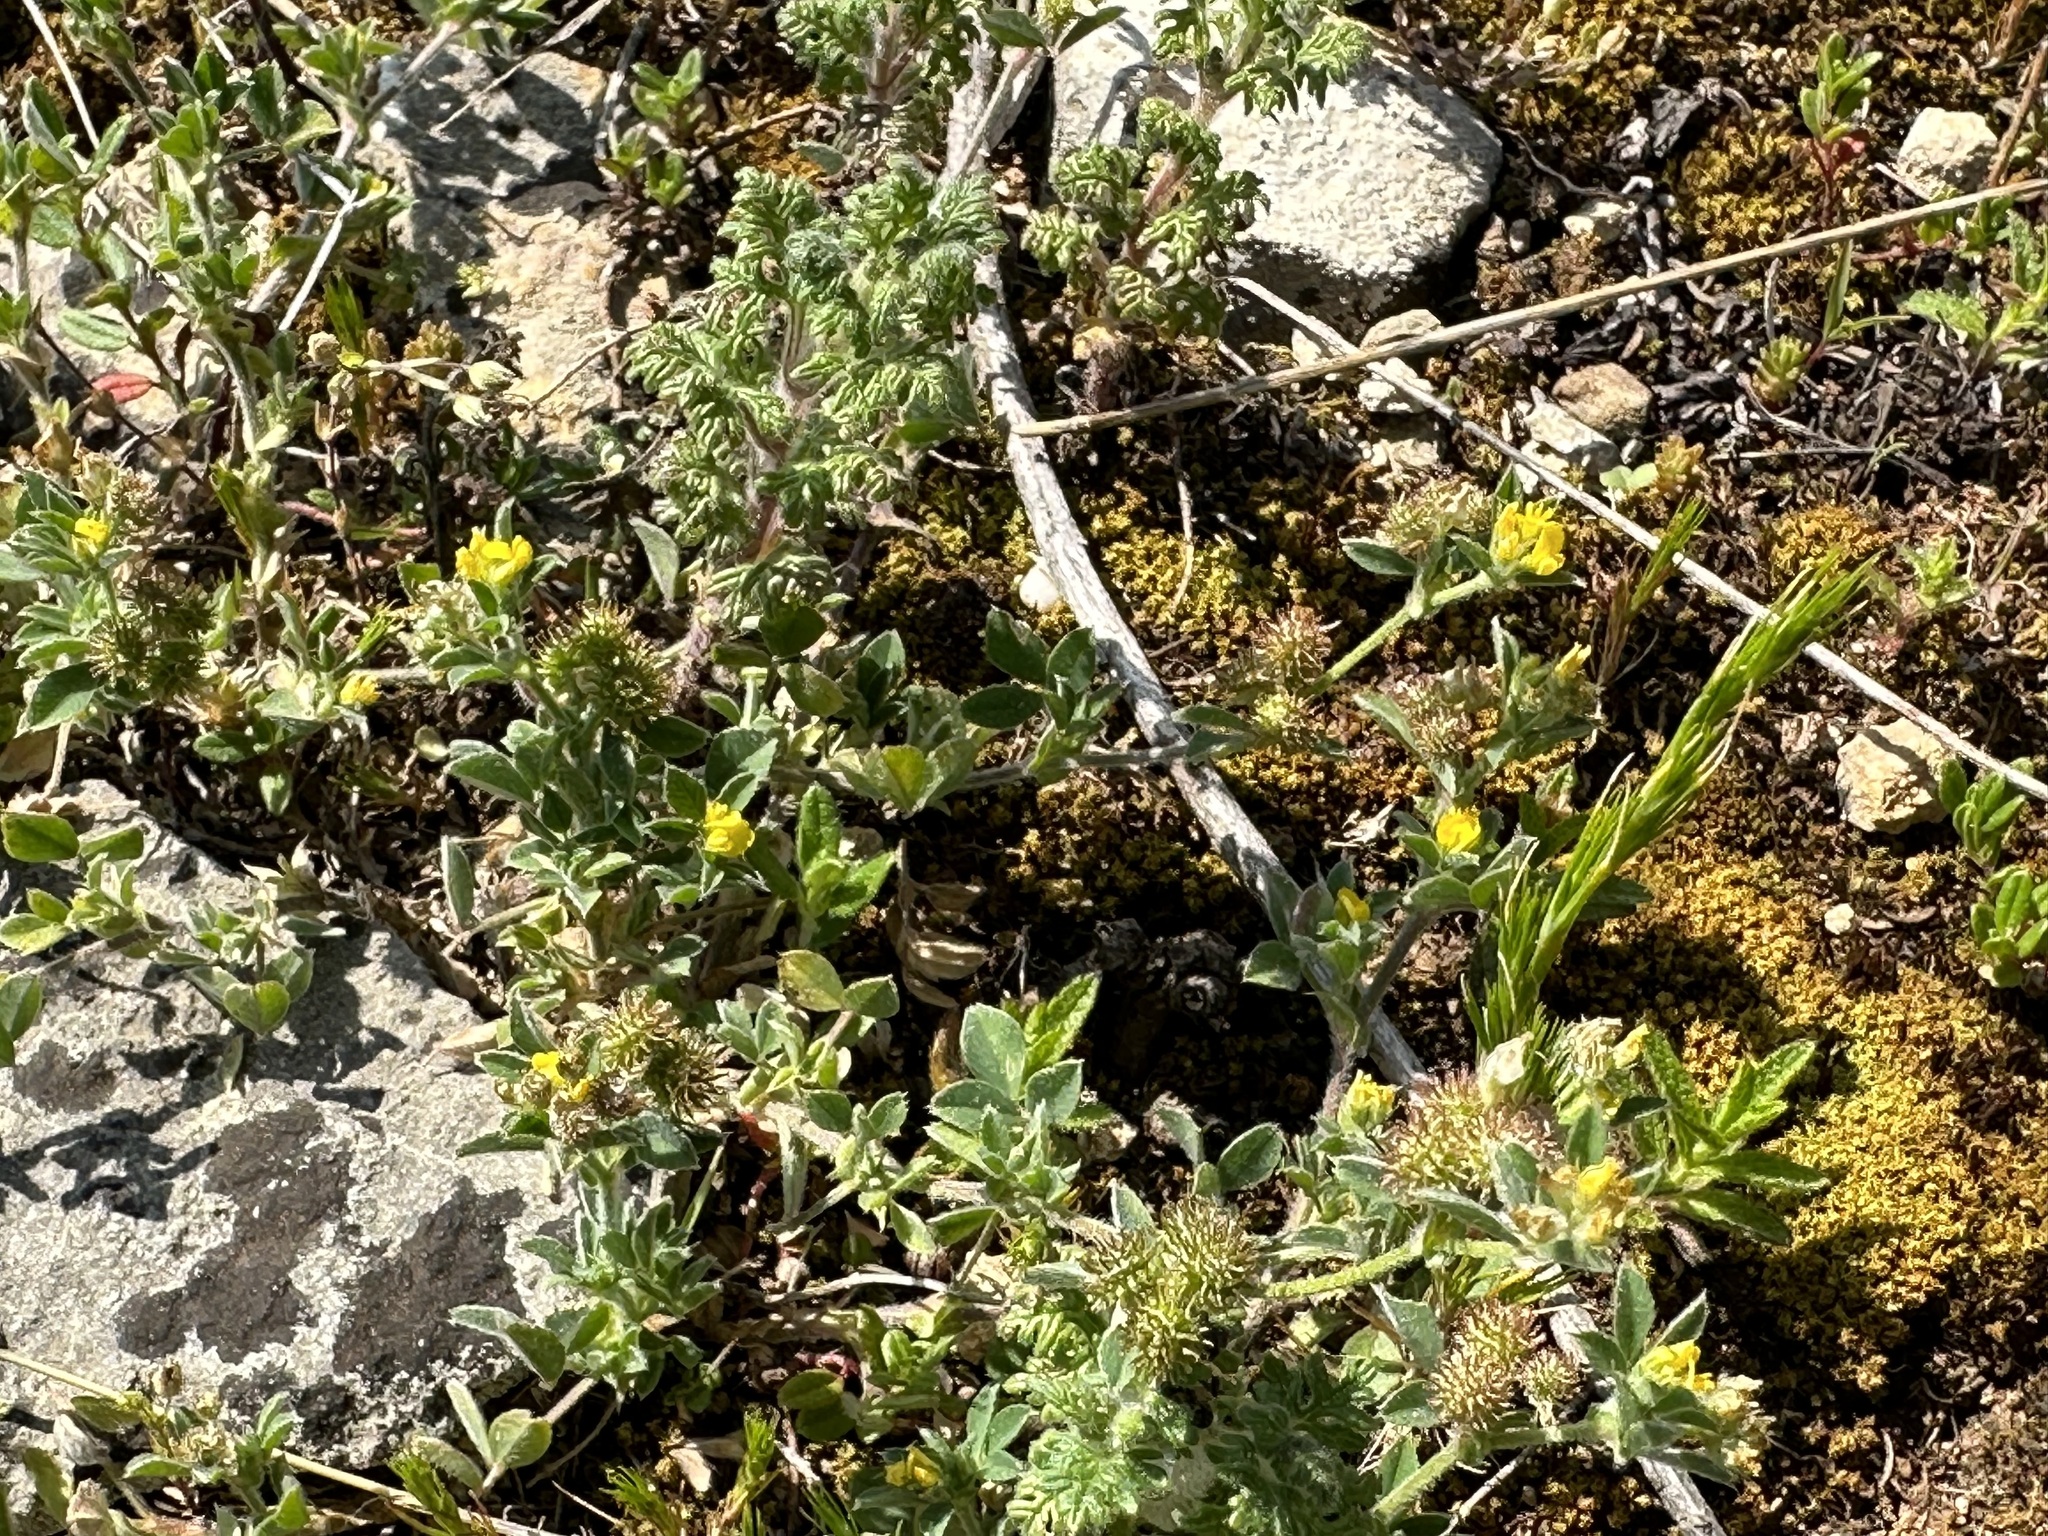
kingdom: Plantae
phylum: Tracheophyta
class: Magnoliopsida
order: Fabales
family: Fabaceae
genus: Medicago
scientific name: Medicago minima
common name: Little bur-clover
